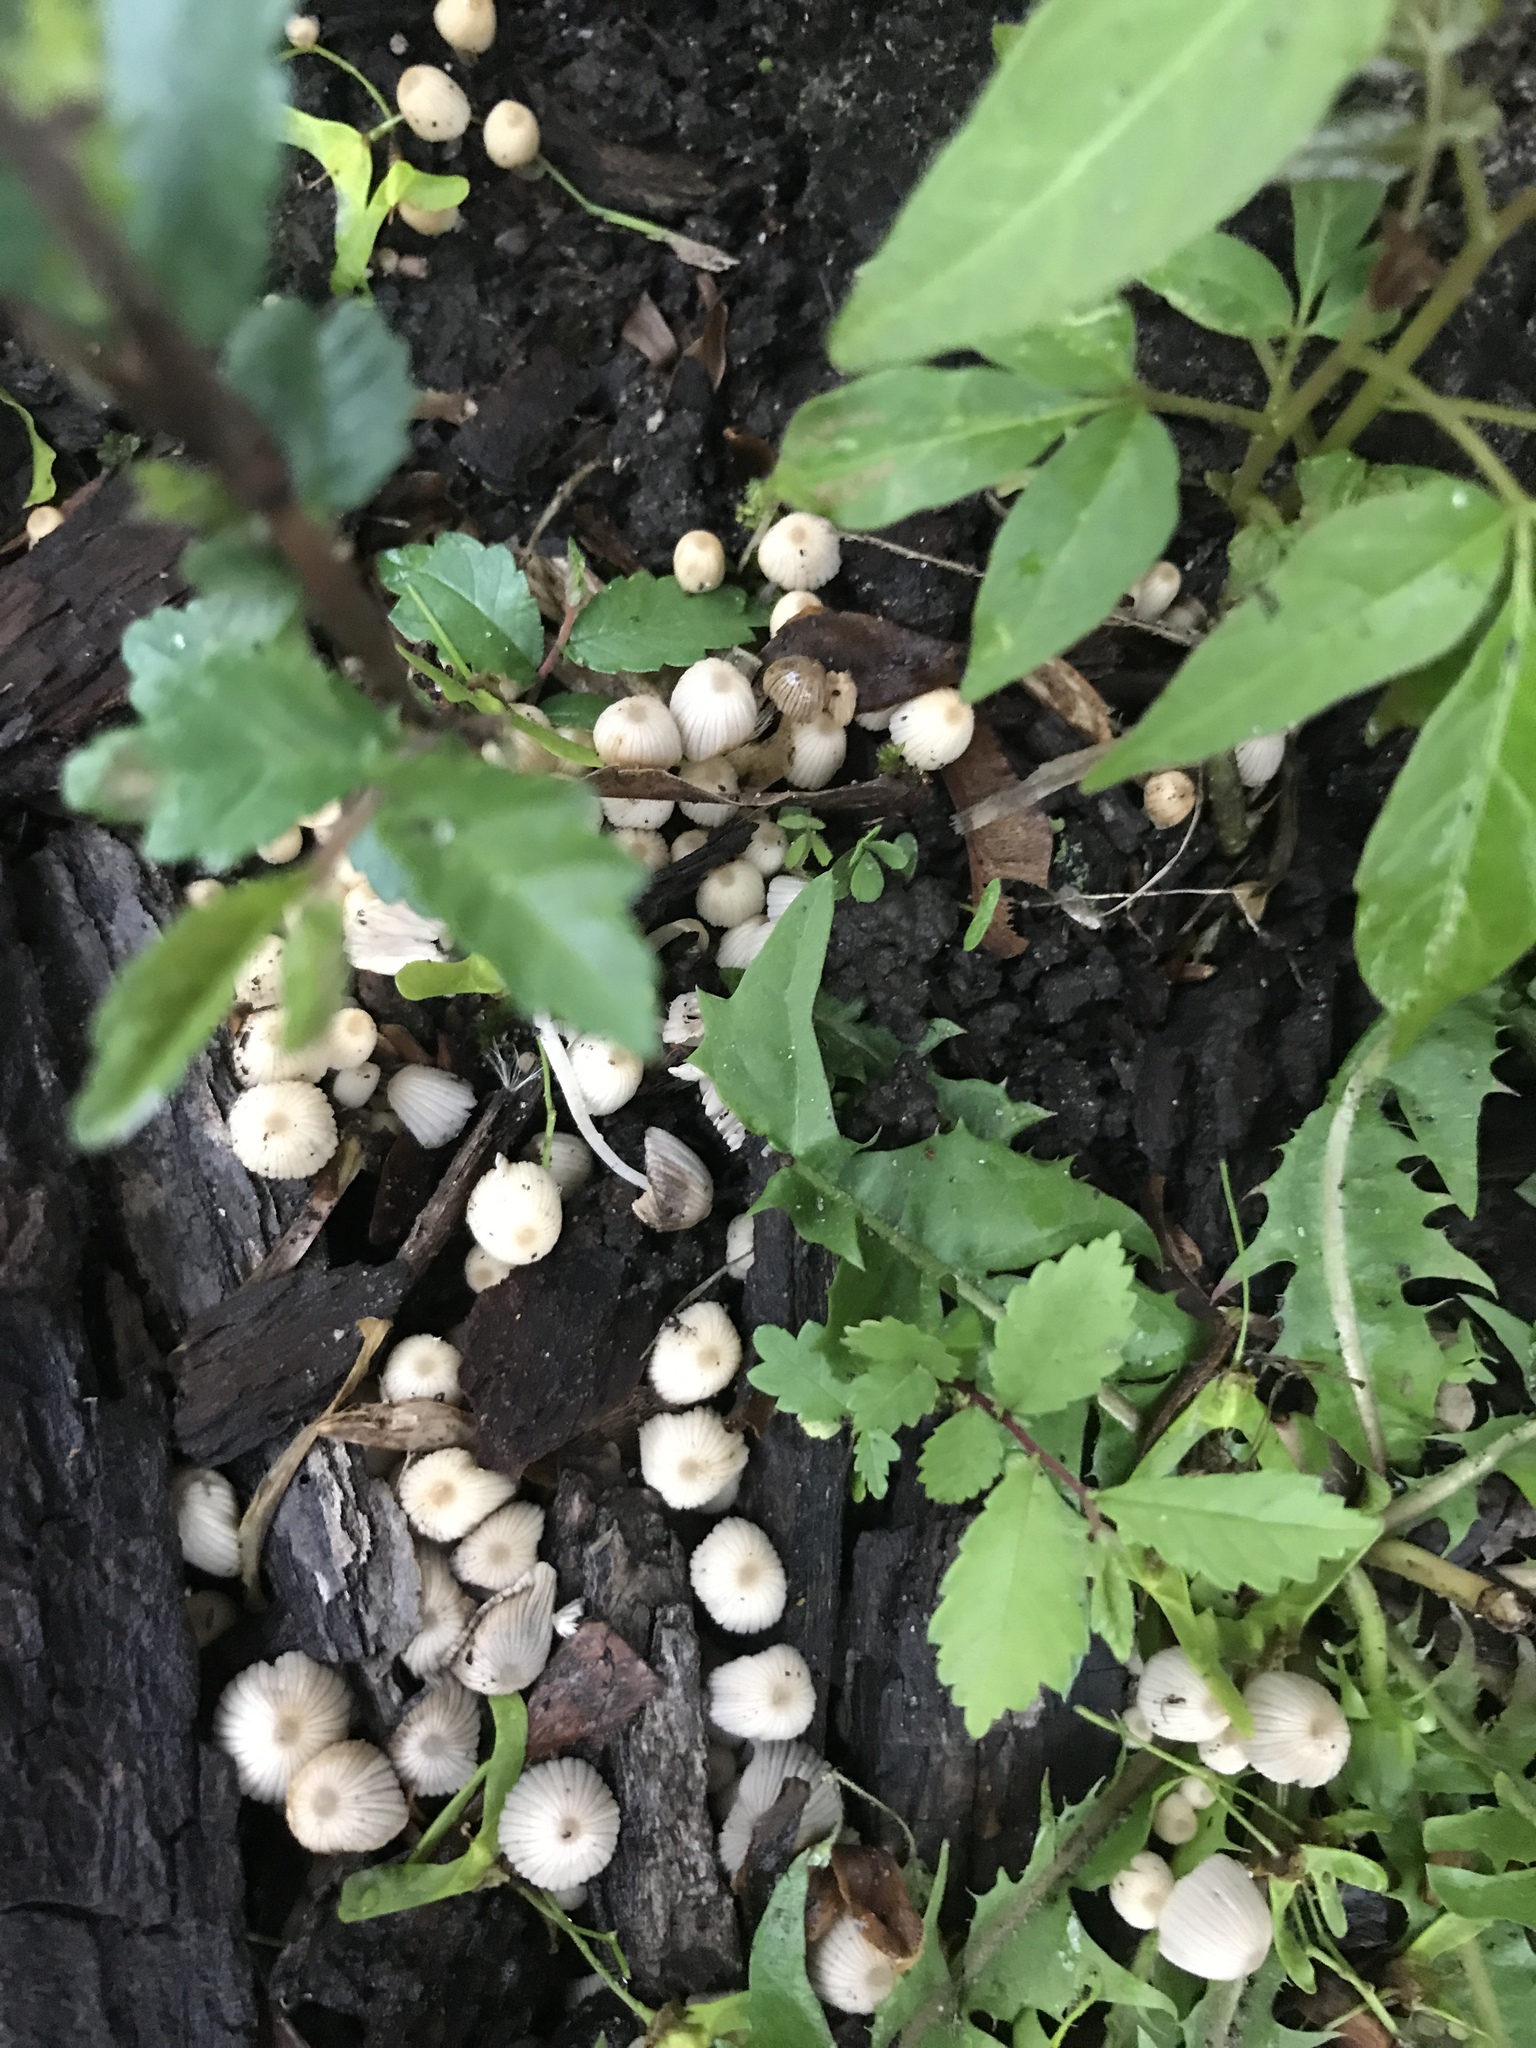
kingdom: Fungi
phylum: Basidiomycota
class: Agaricomycetes
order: Agaricales
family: Psathyrellaceae
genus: Coprinellus
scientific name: Coprinellus disseminatus
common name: Fairies' bonnets
